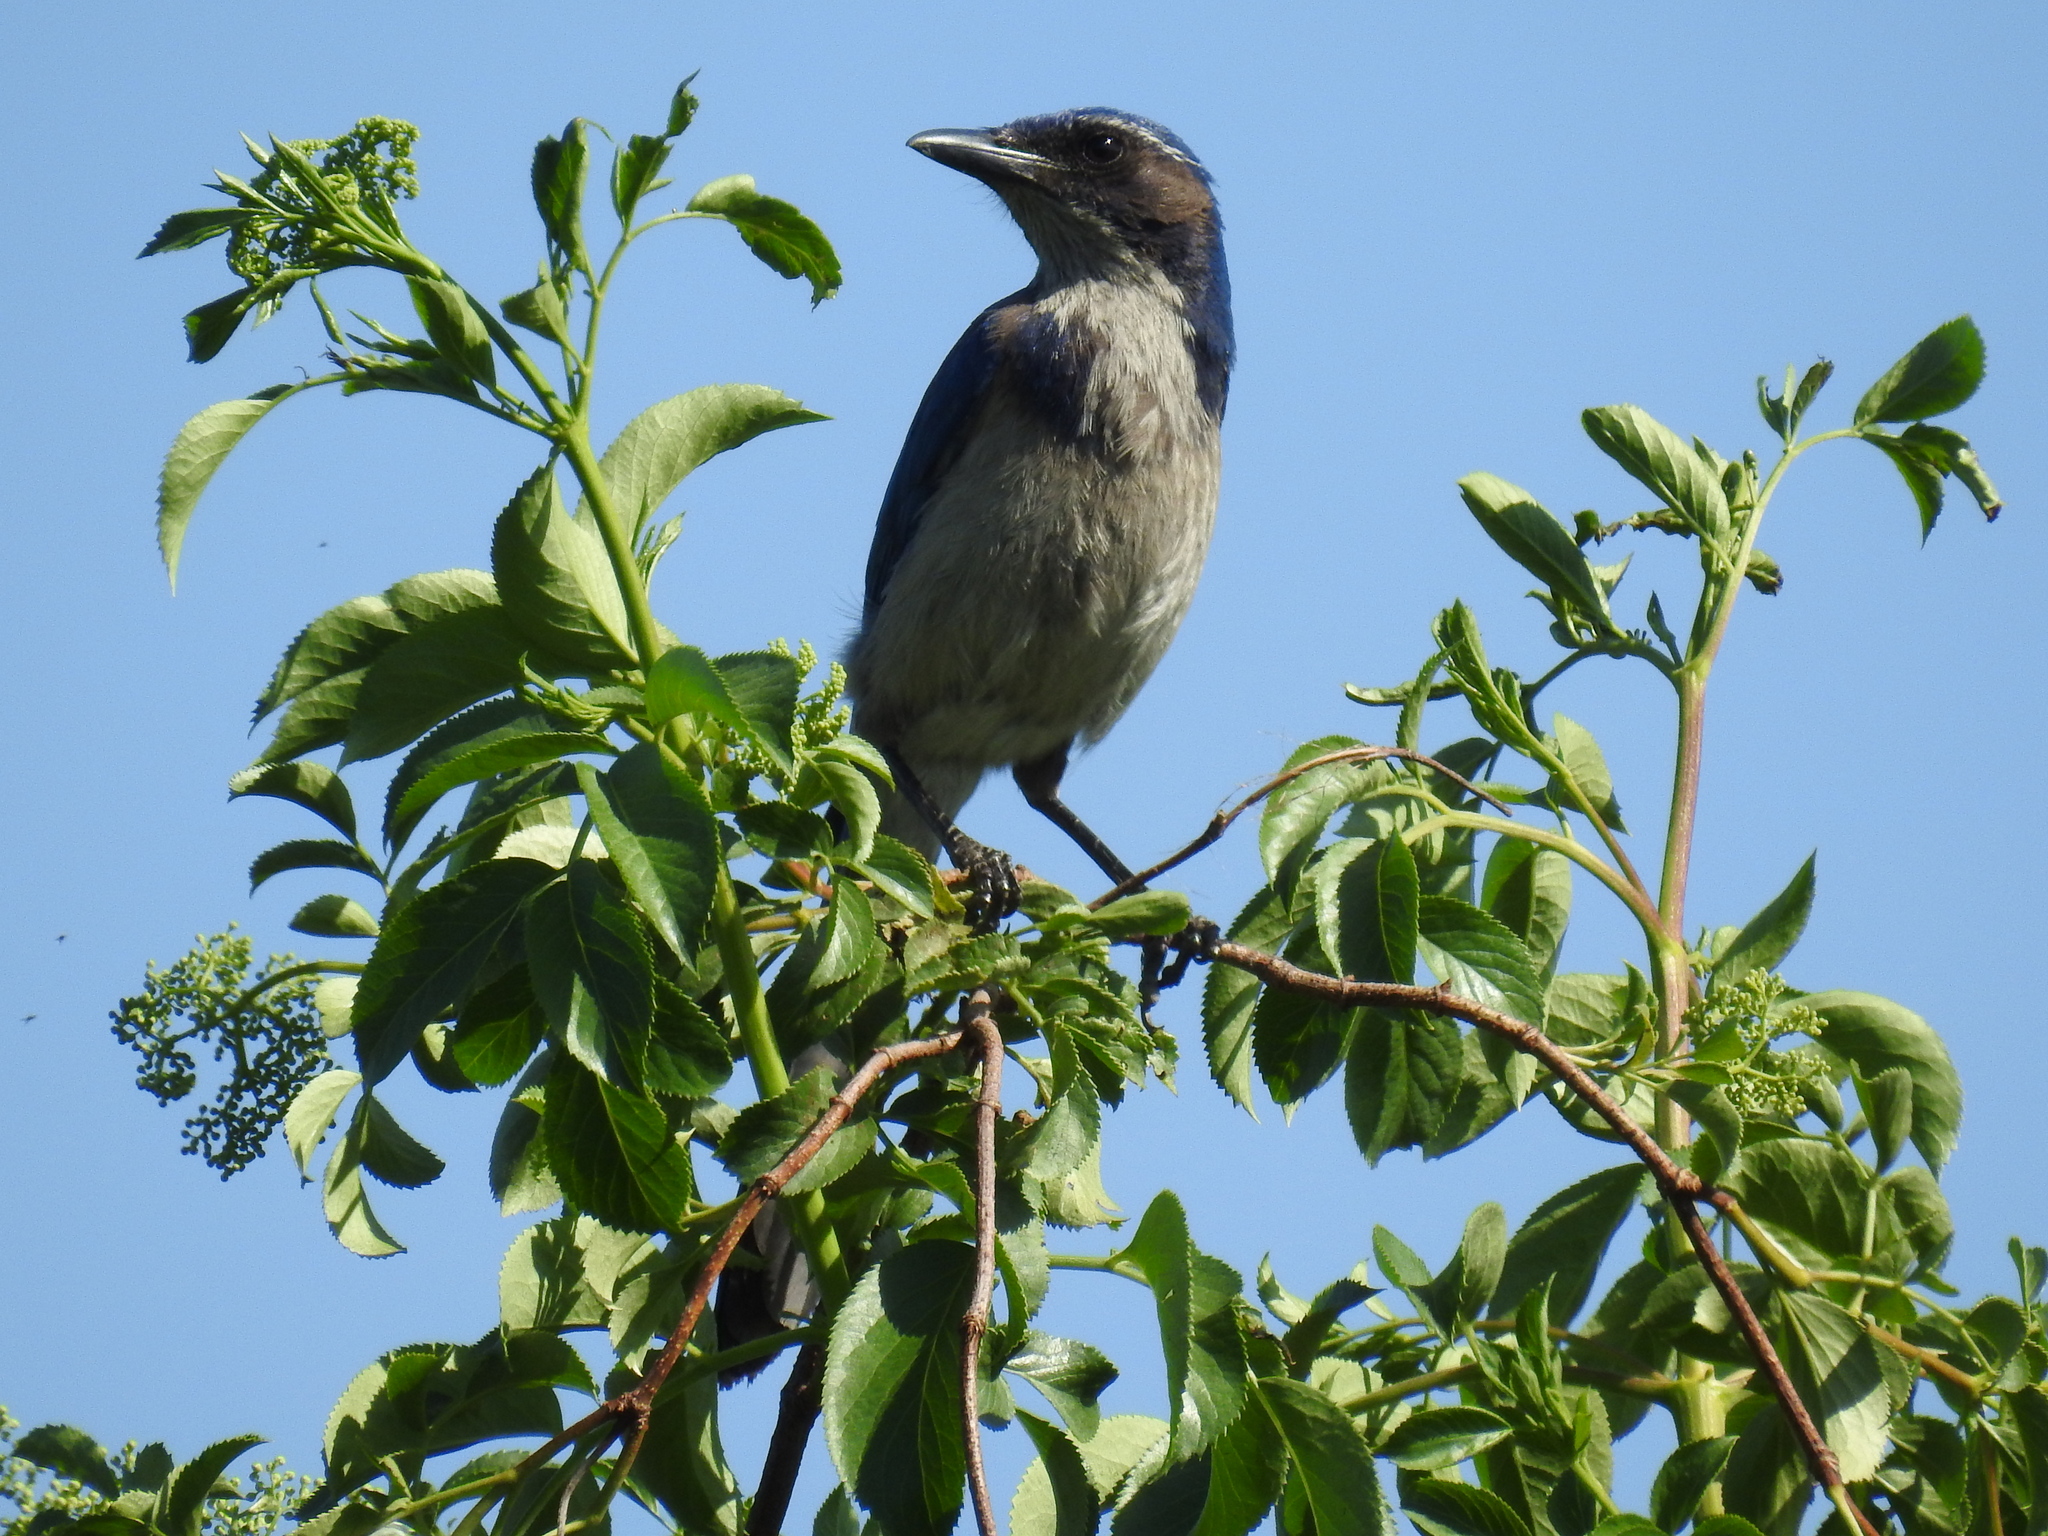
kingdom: Animalia
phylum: Chordata
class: Aves
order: Passeriformes
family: Corvidae
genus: Aphelocoma
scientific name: Aphelocoma californica
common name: California scrub-jay
